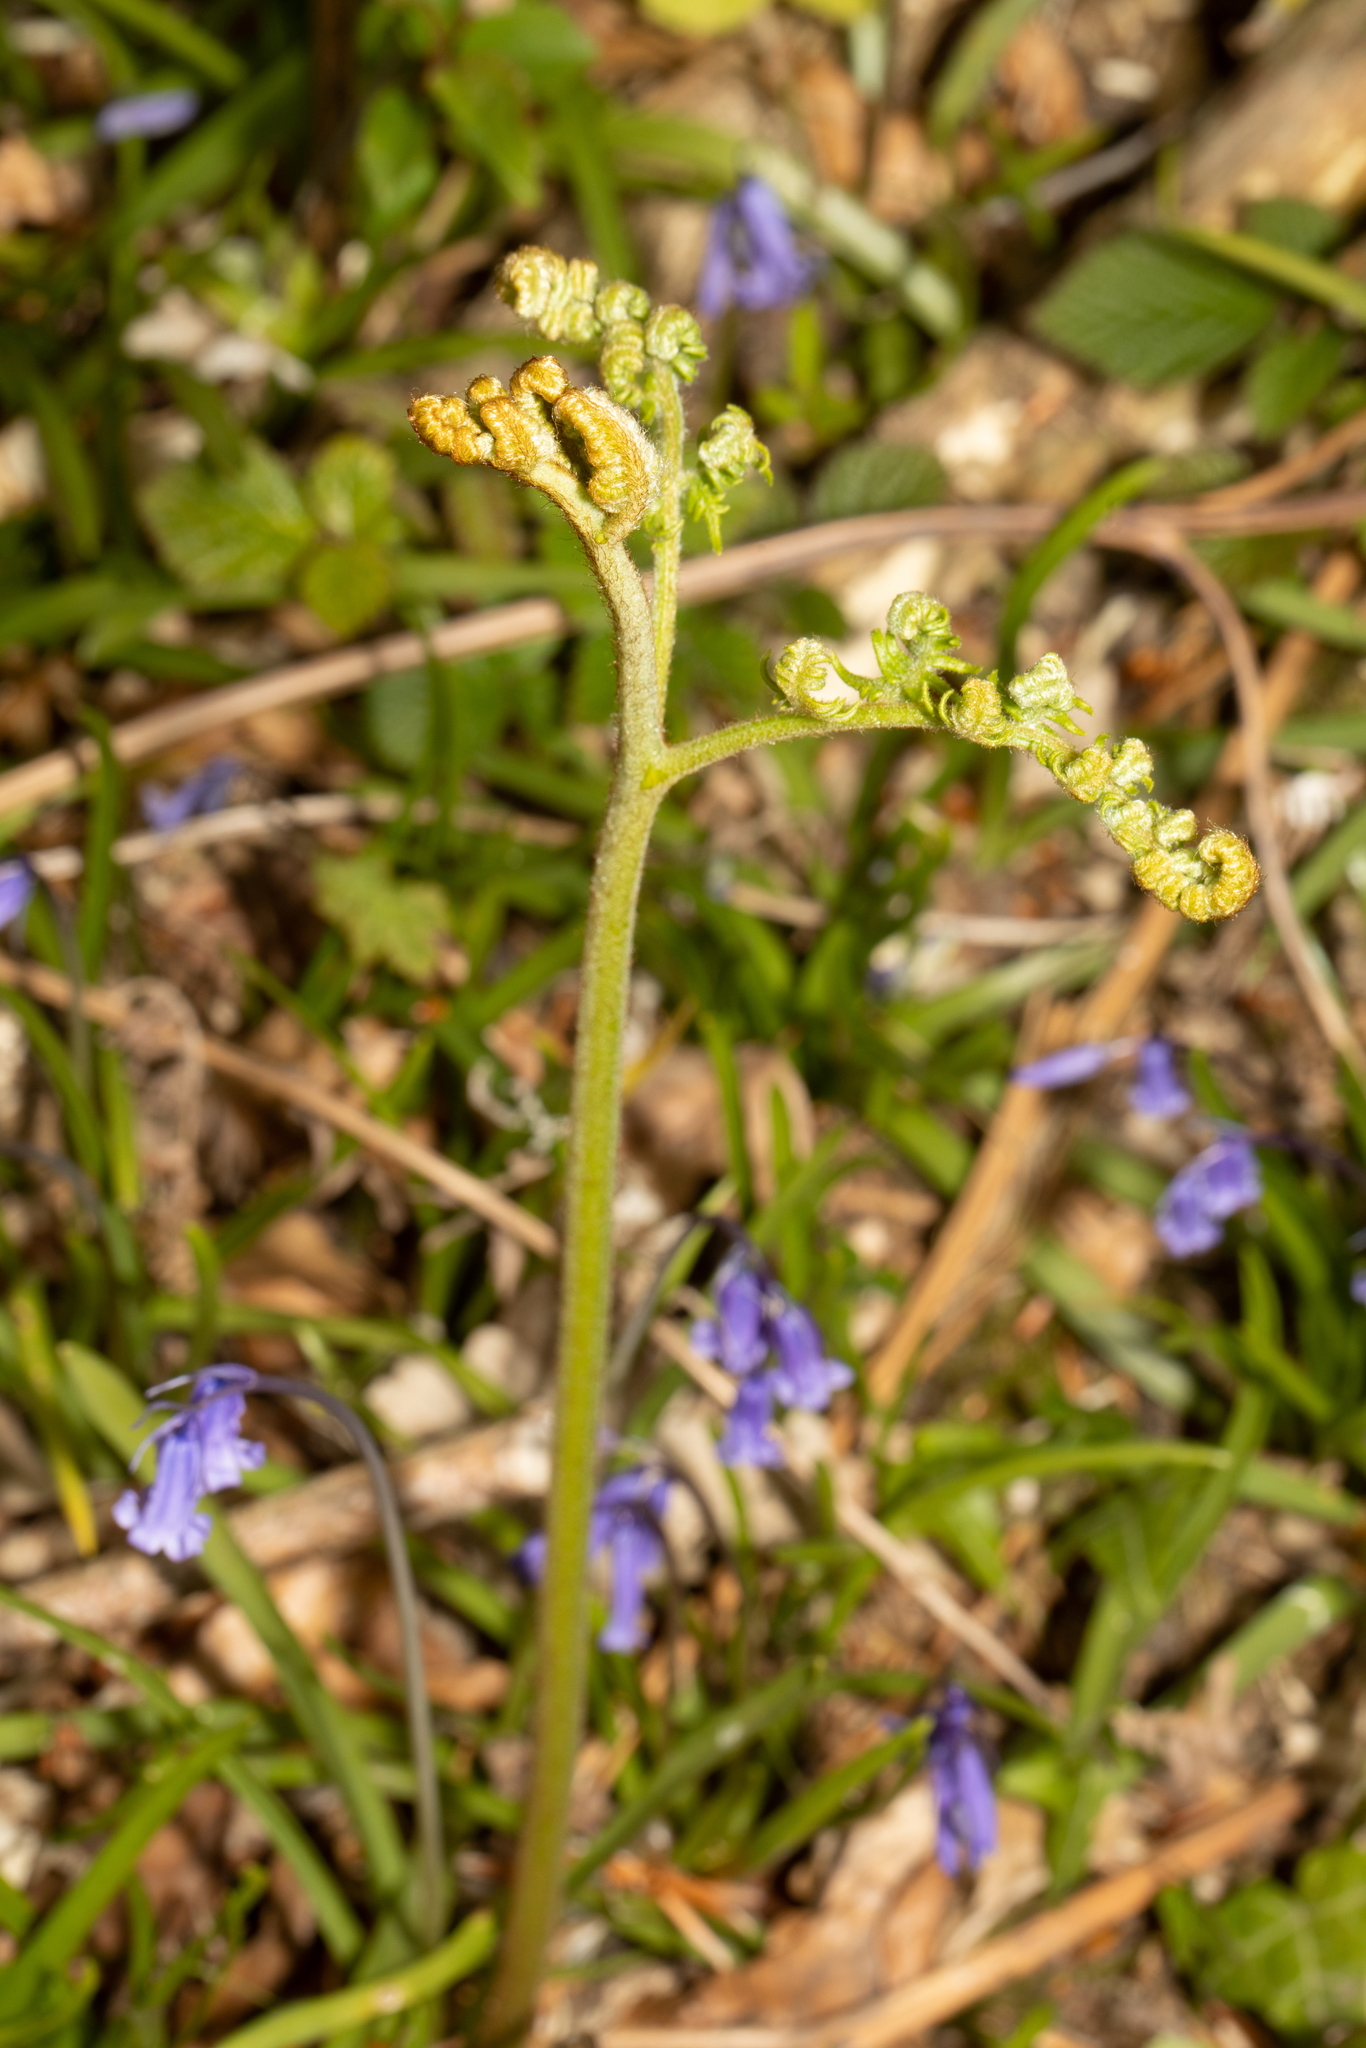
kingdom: Plantae
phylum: Tracheophyta
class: Polypodiopsida
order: Polypodiales
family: Dennstaedtiaceae
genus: Pteridium
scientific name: Pteridium aquilinum
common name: Bracken
